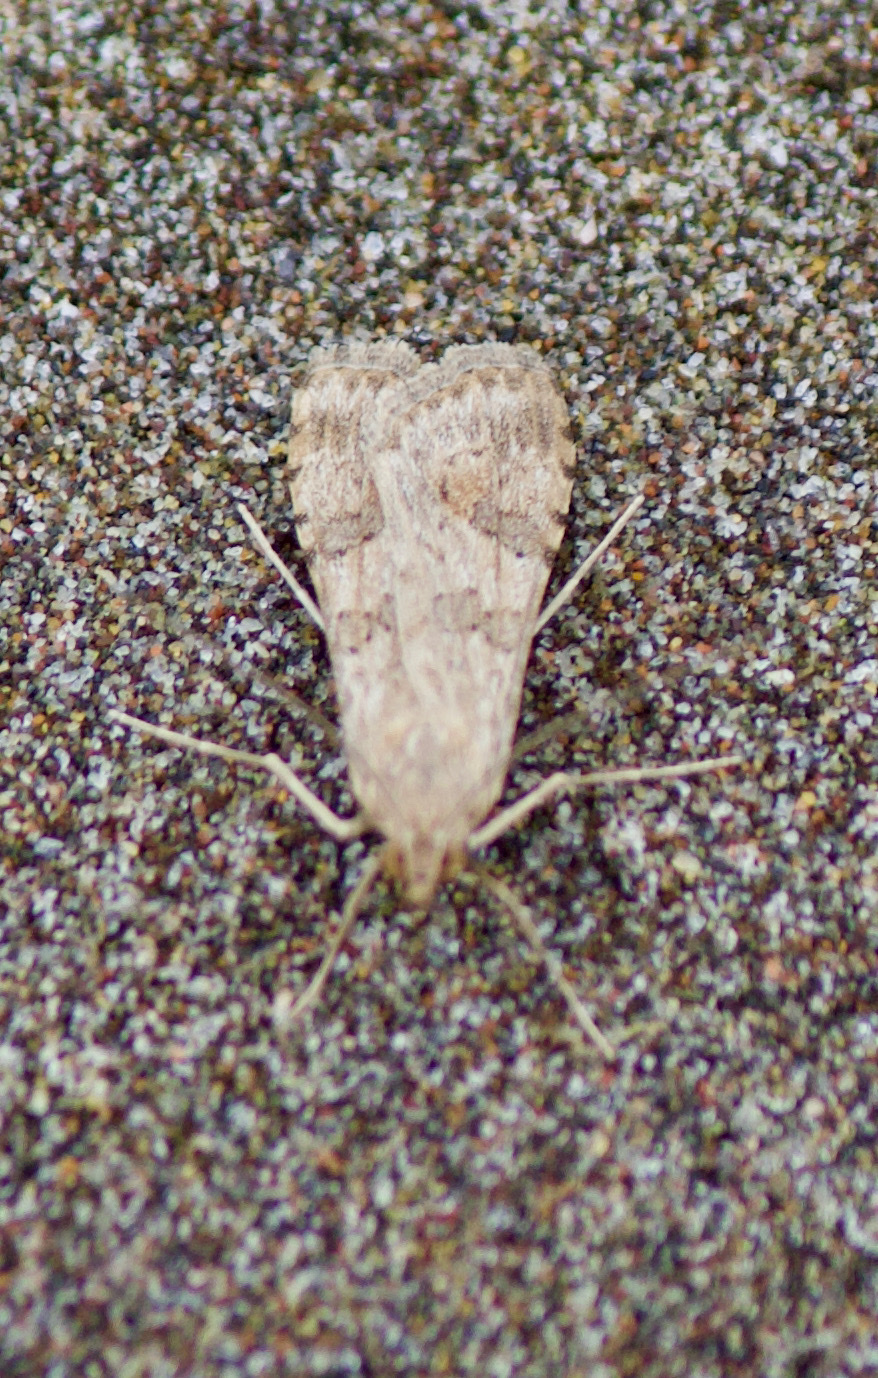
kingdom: Animalia
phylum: Arthropoda
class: Insecta
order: Lepidoptera
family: Crambidae
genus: Nomophila
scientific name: Nomophila distinctalis
